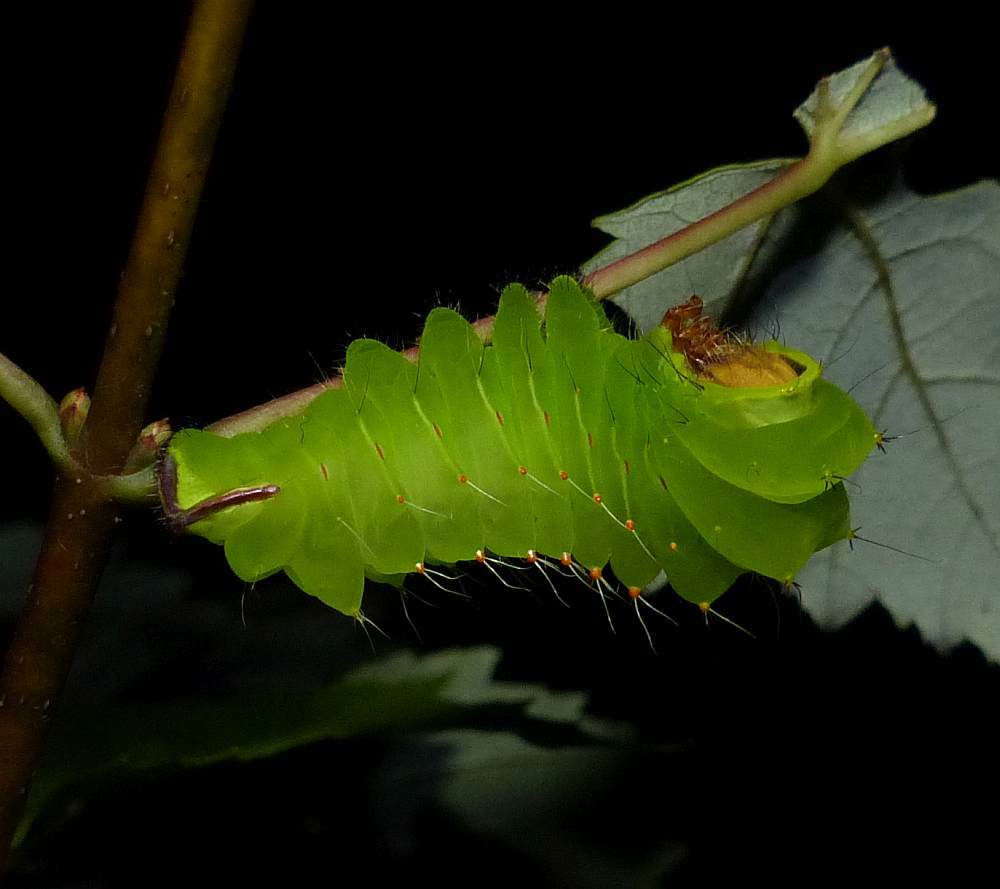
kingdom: Animalia
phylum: Arthropoda
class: Insecta
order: Lepidoptera
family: Saturniidae
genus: Antheraea
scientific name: Antheraea polyphemus
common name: Polyphemus moth
